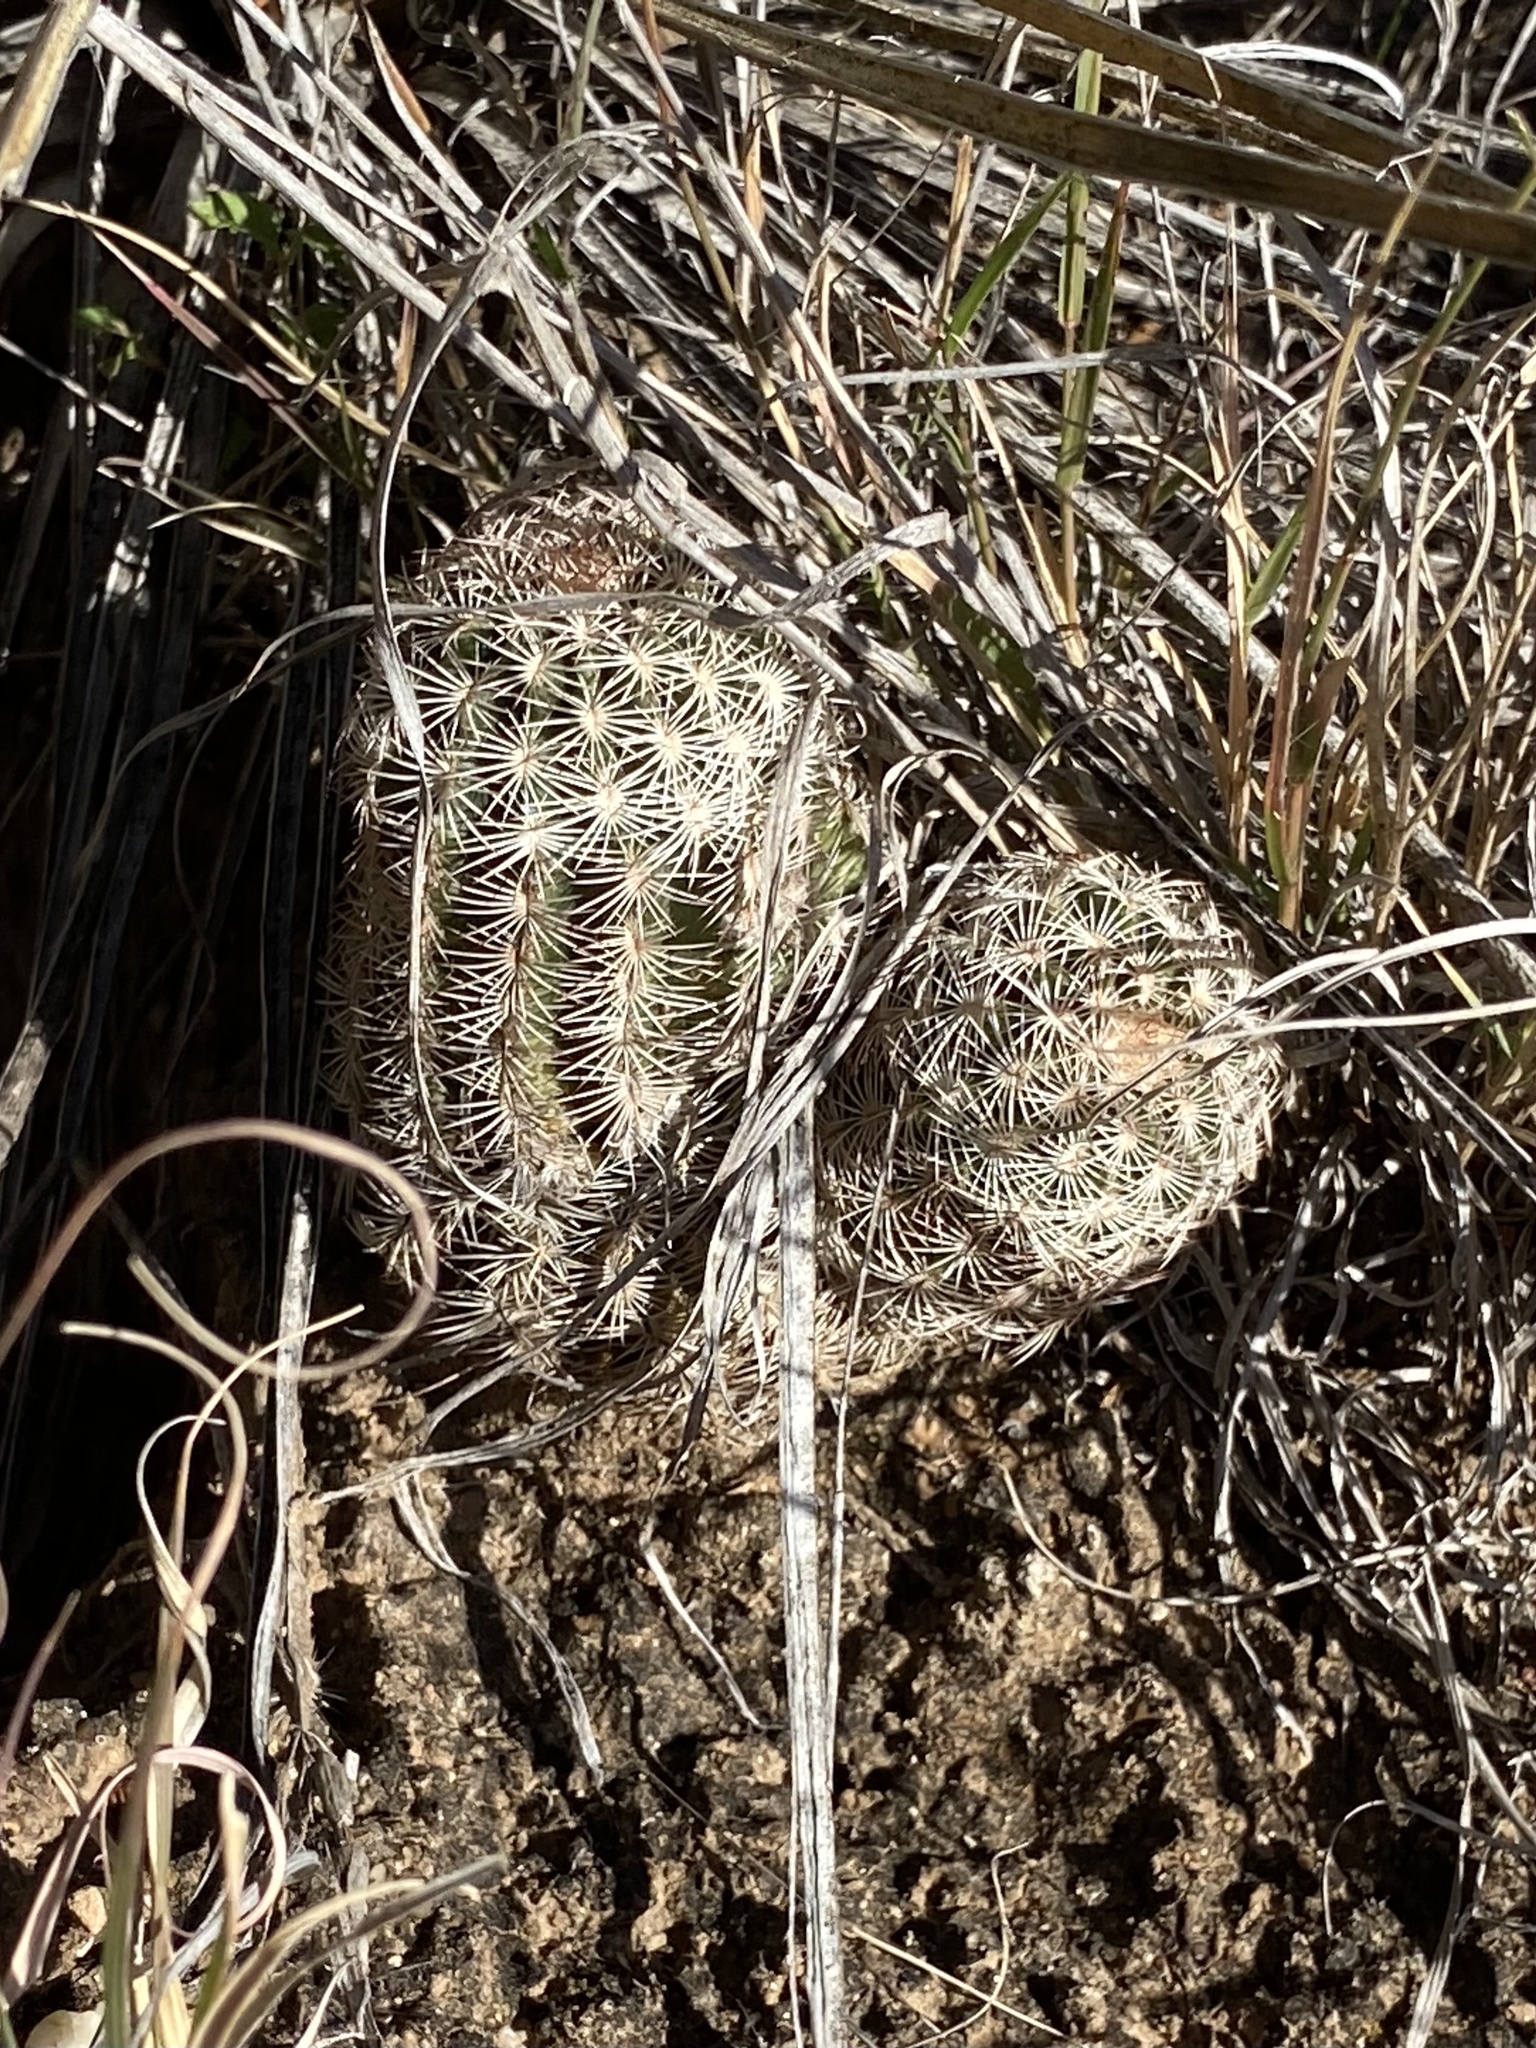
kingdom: Plantae
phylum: Tracheophyta
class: Magnoliopsida
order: Caryophyllales
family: Cactaceae
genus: Echinocereus
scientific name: Echinocereus reichenbachii
